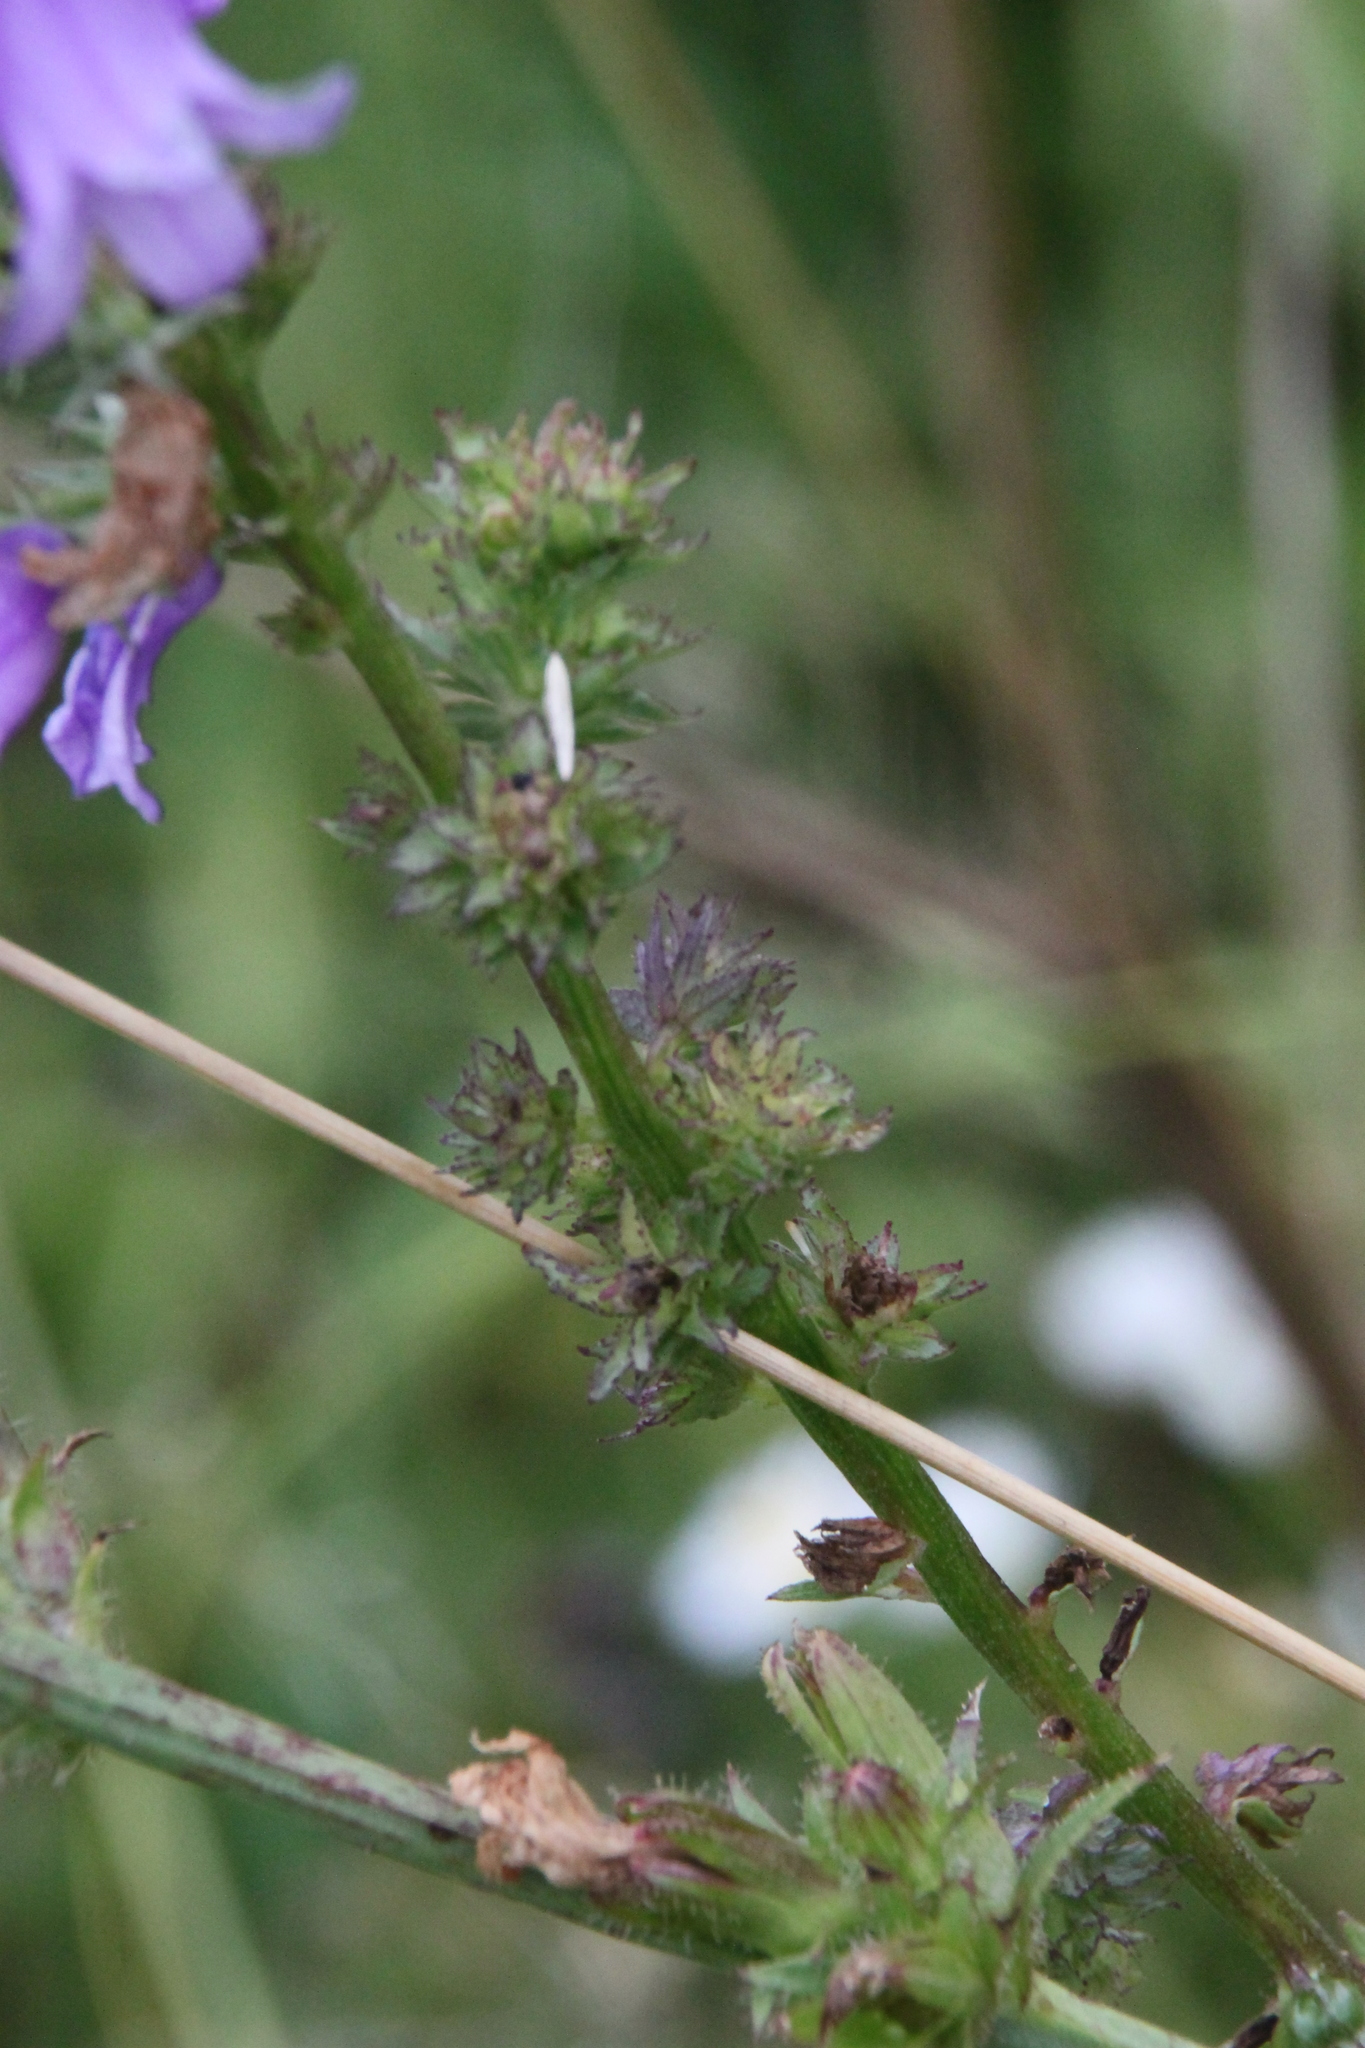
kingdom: Plantae
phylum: Tracheophyta
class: Magnoliopsida
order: Asterales
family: Campanulaceae
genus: Campanula
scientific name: Campanula bononiensis
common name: Pale bellflower
